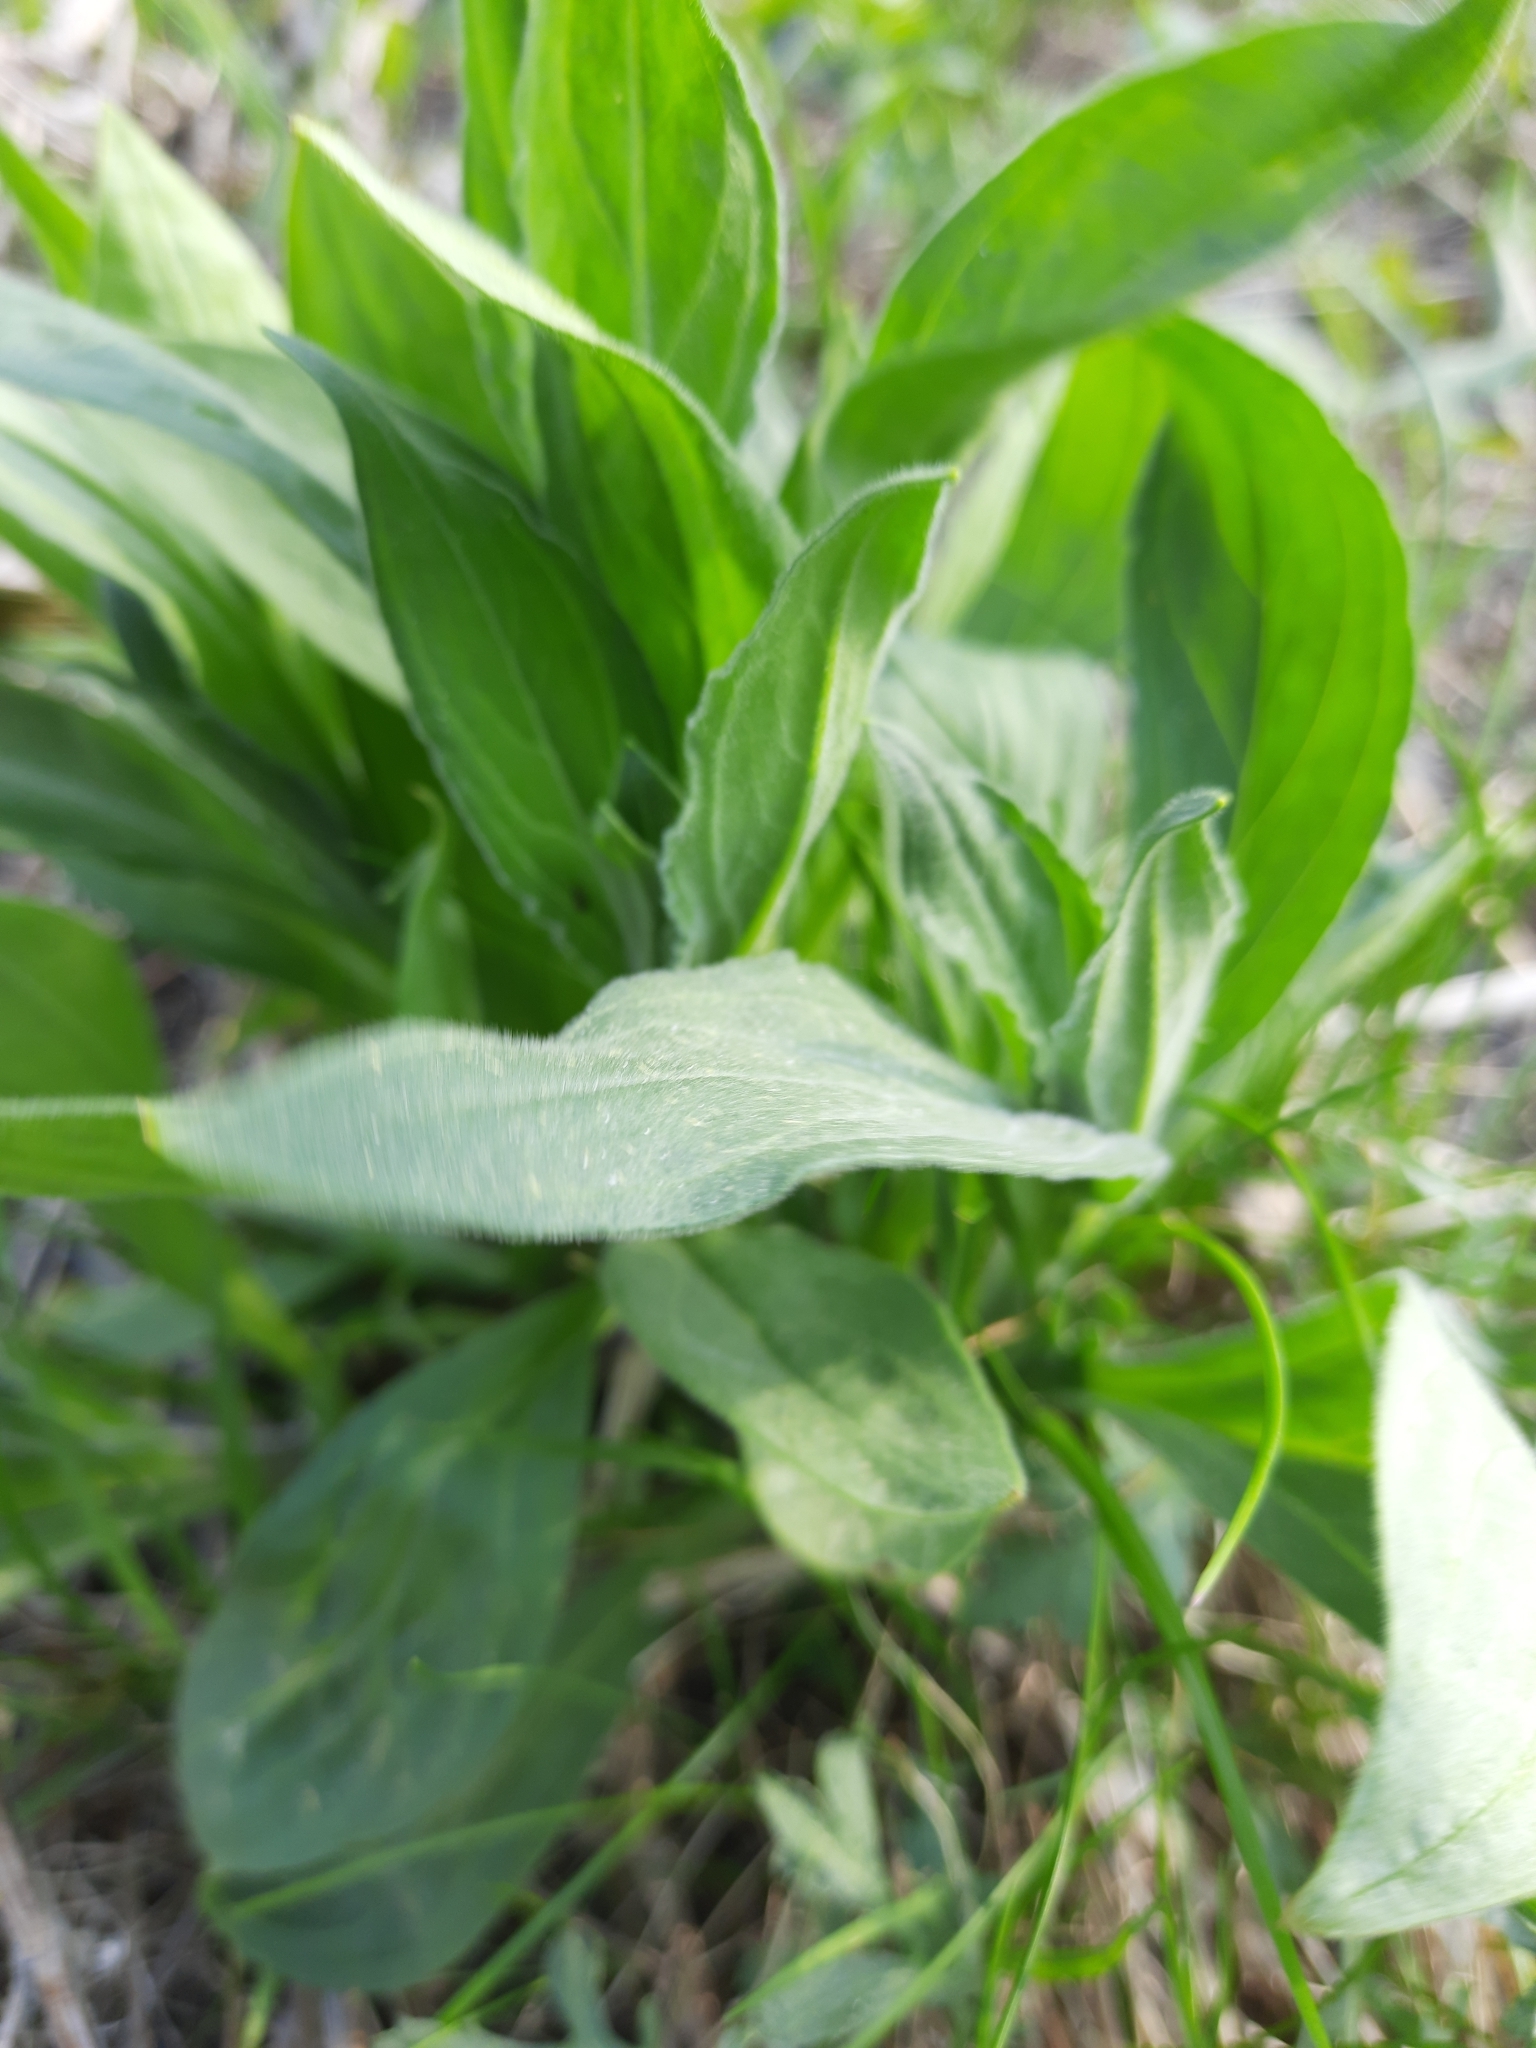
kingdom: Plantae
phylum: Tracheophyta
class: Magnoliopsida
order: Caryophyllales
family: Caryophyllaceae
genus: Silene
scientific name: Silene latifolia
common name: White campion
